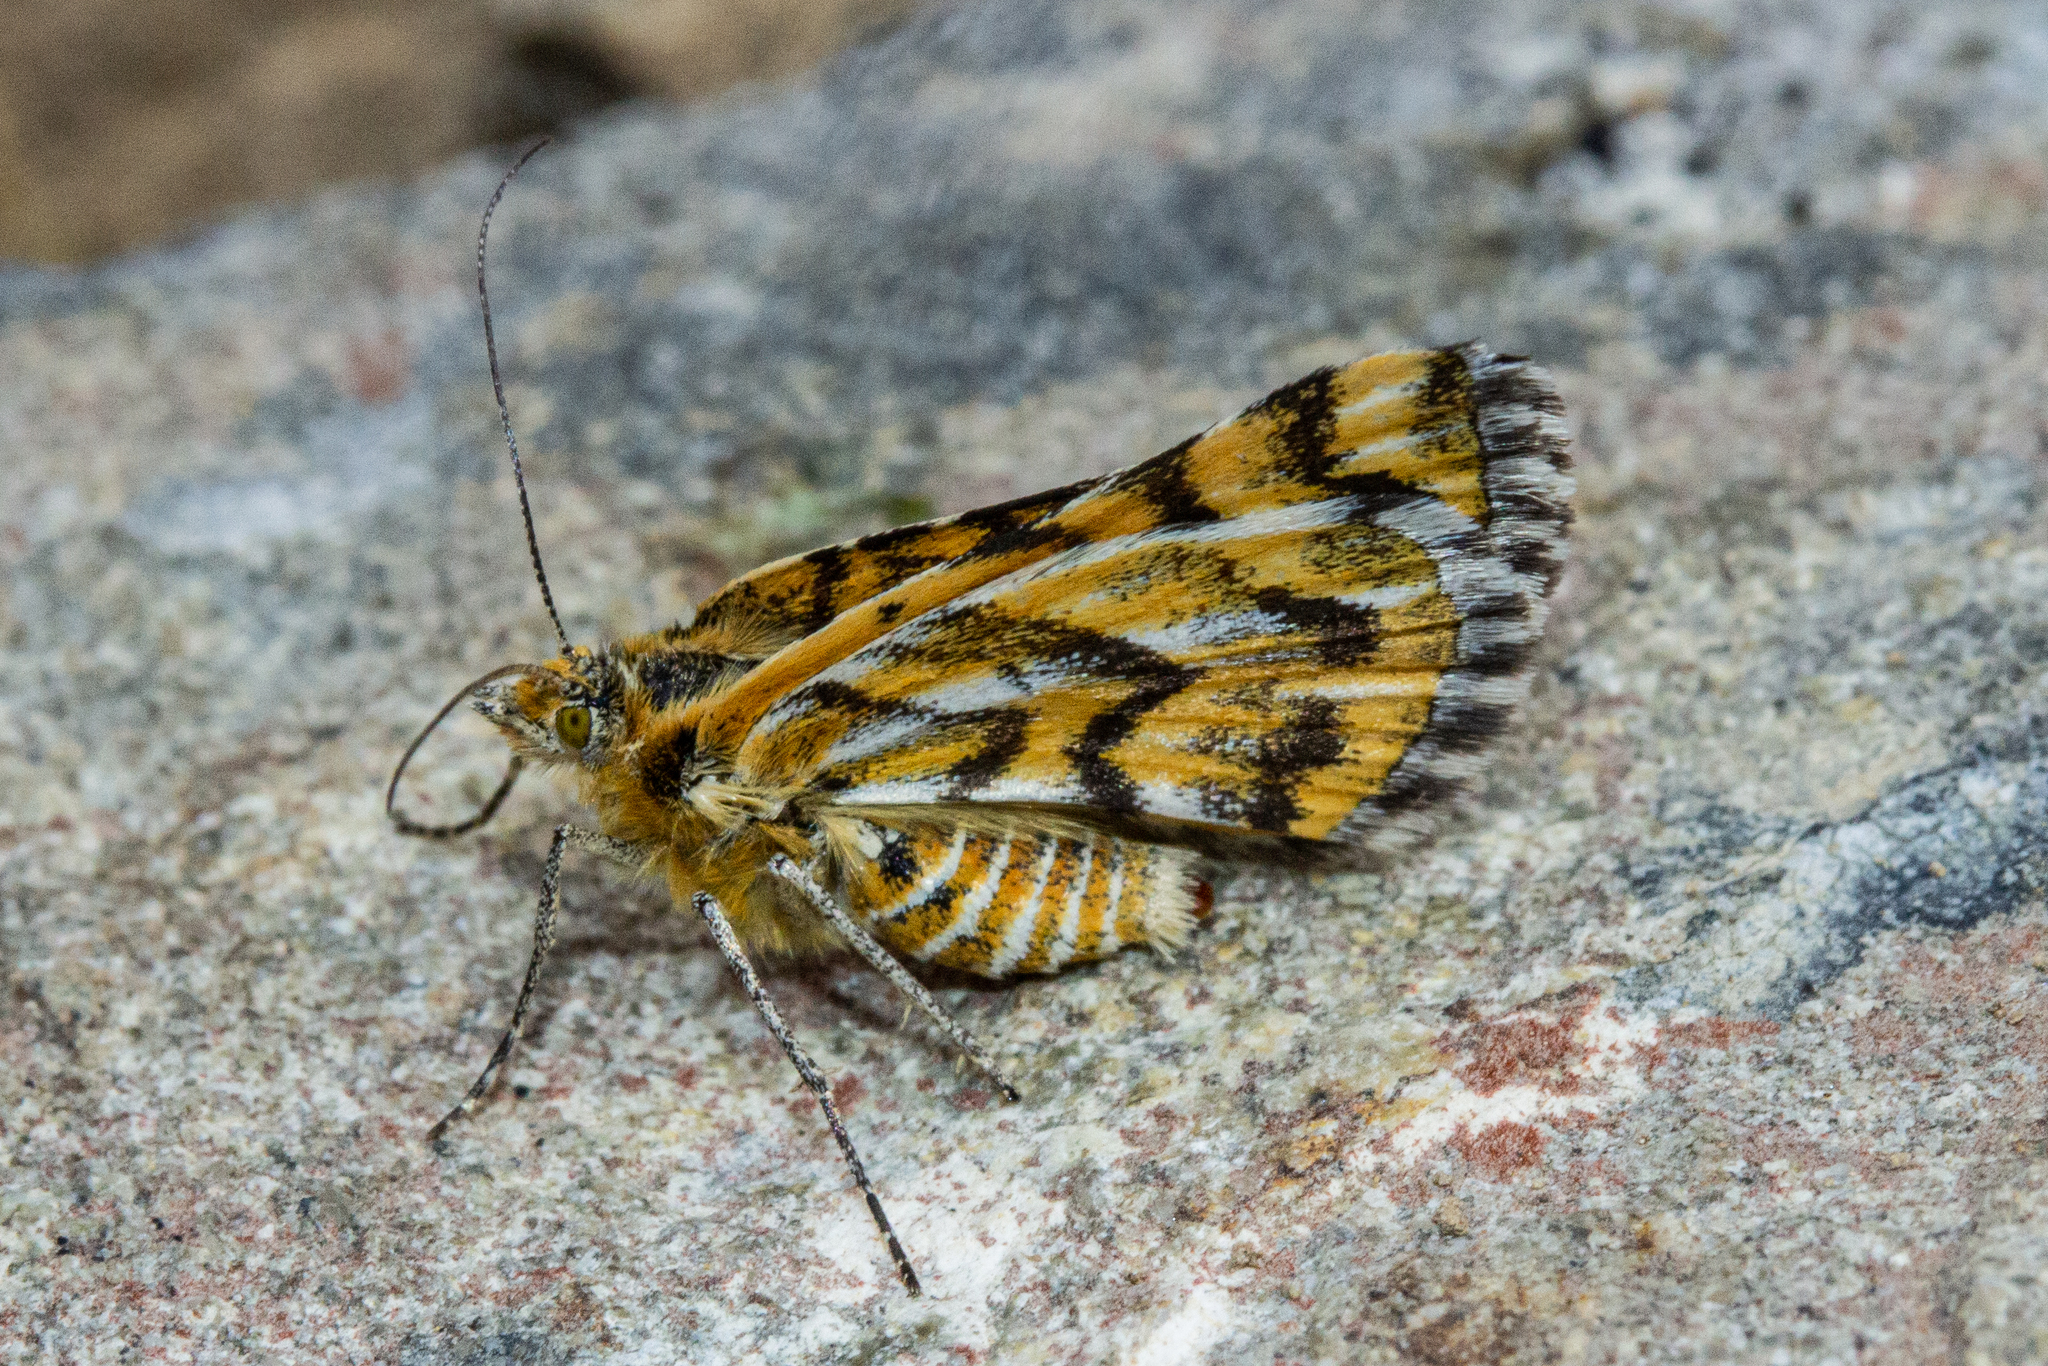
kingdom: Animalia
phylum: Arthropoda
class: Insecta
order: Lepidoptera
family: Geometridae
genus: Notoreas
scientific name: Notoreas
